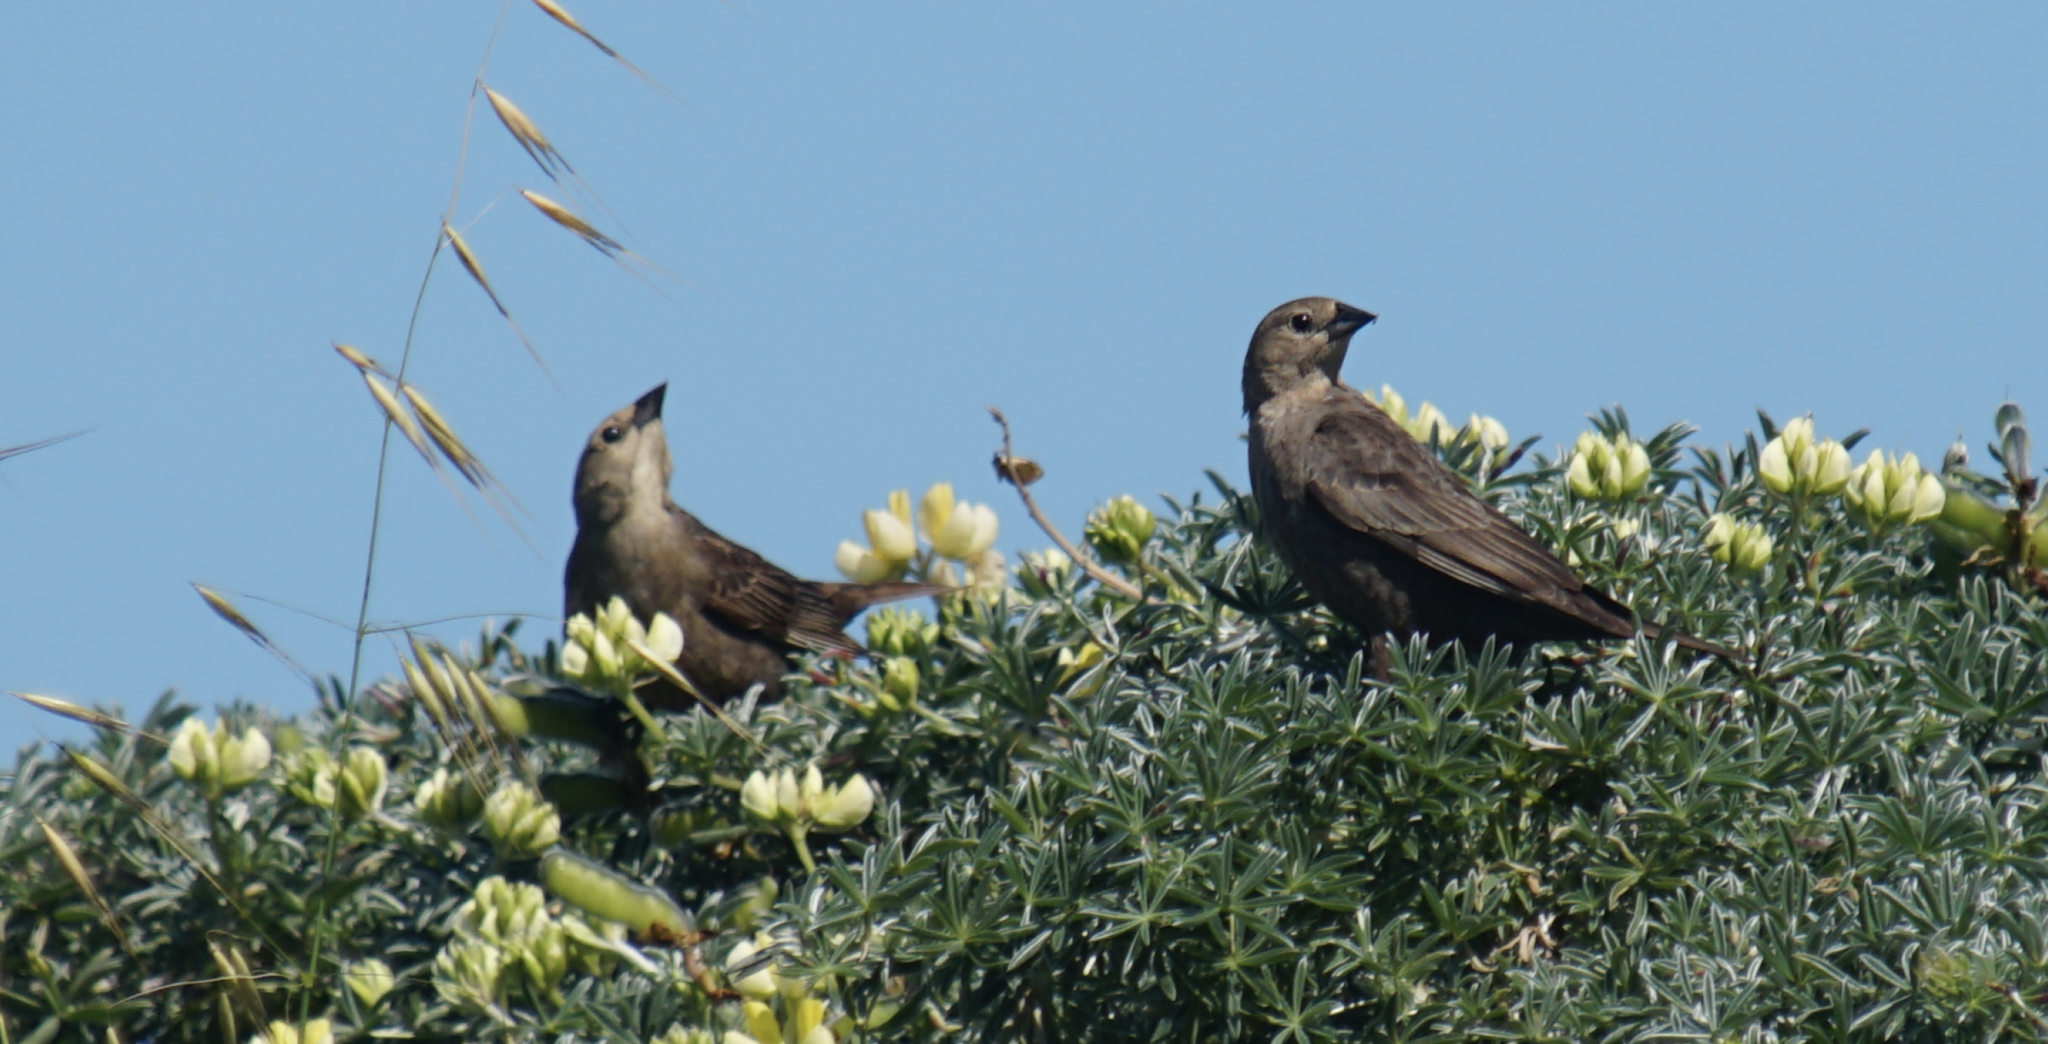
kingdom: Animalia
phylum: Chordata
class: Aves
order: Passeriformes
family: Icteridae
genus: Molothrus
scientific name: Molothrus ater
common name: Brown-headed cowbird
